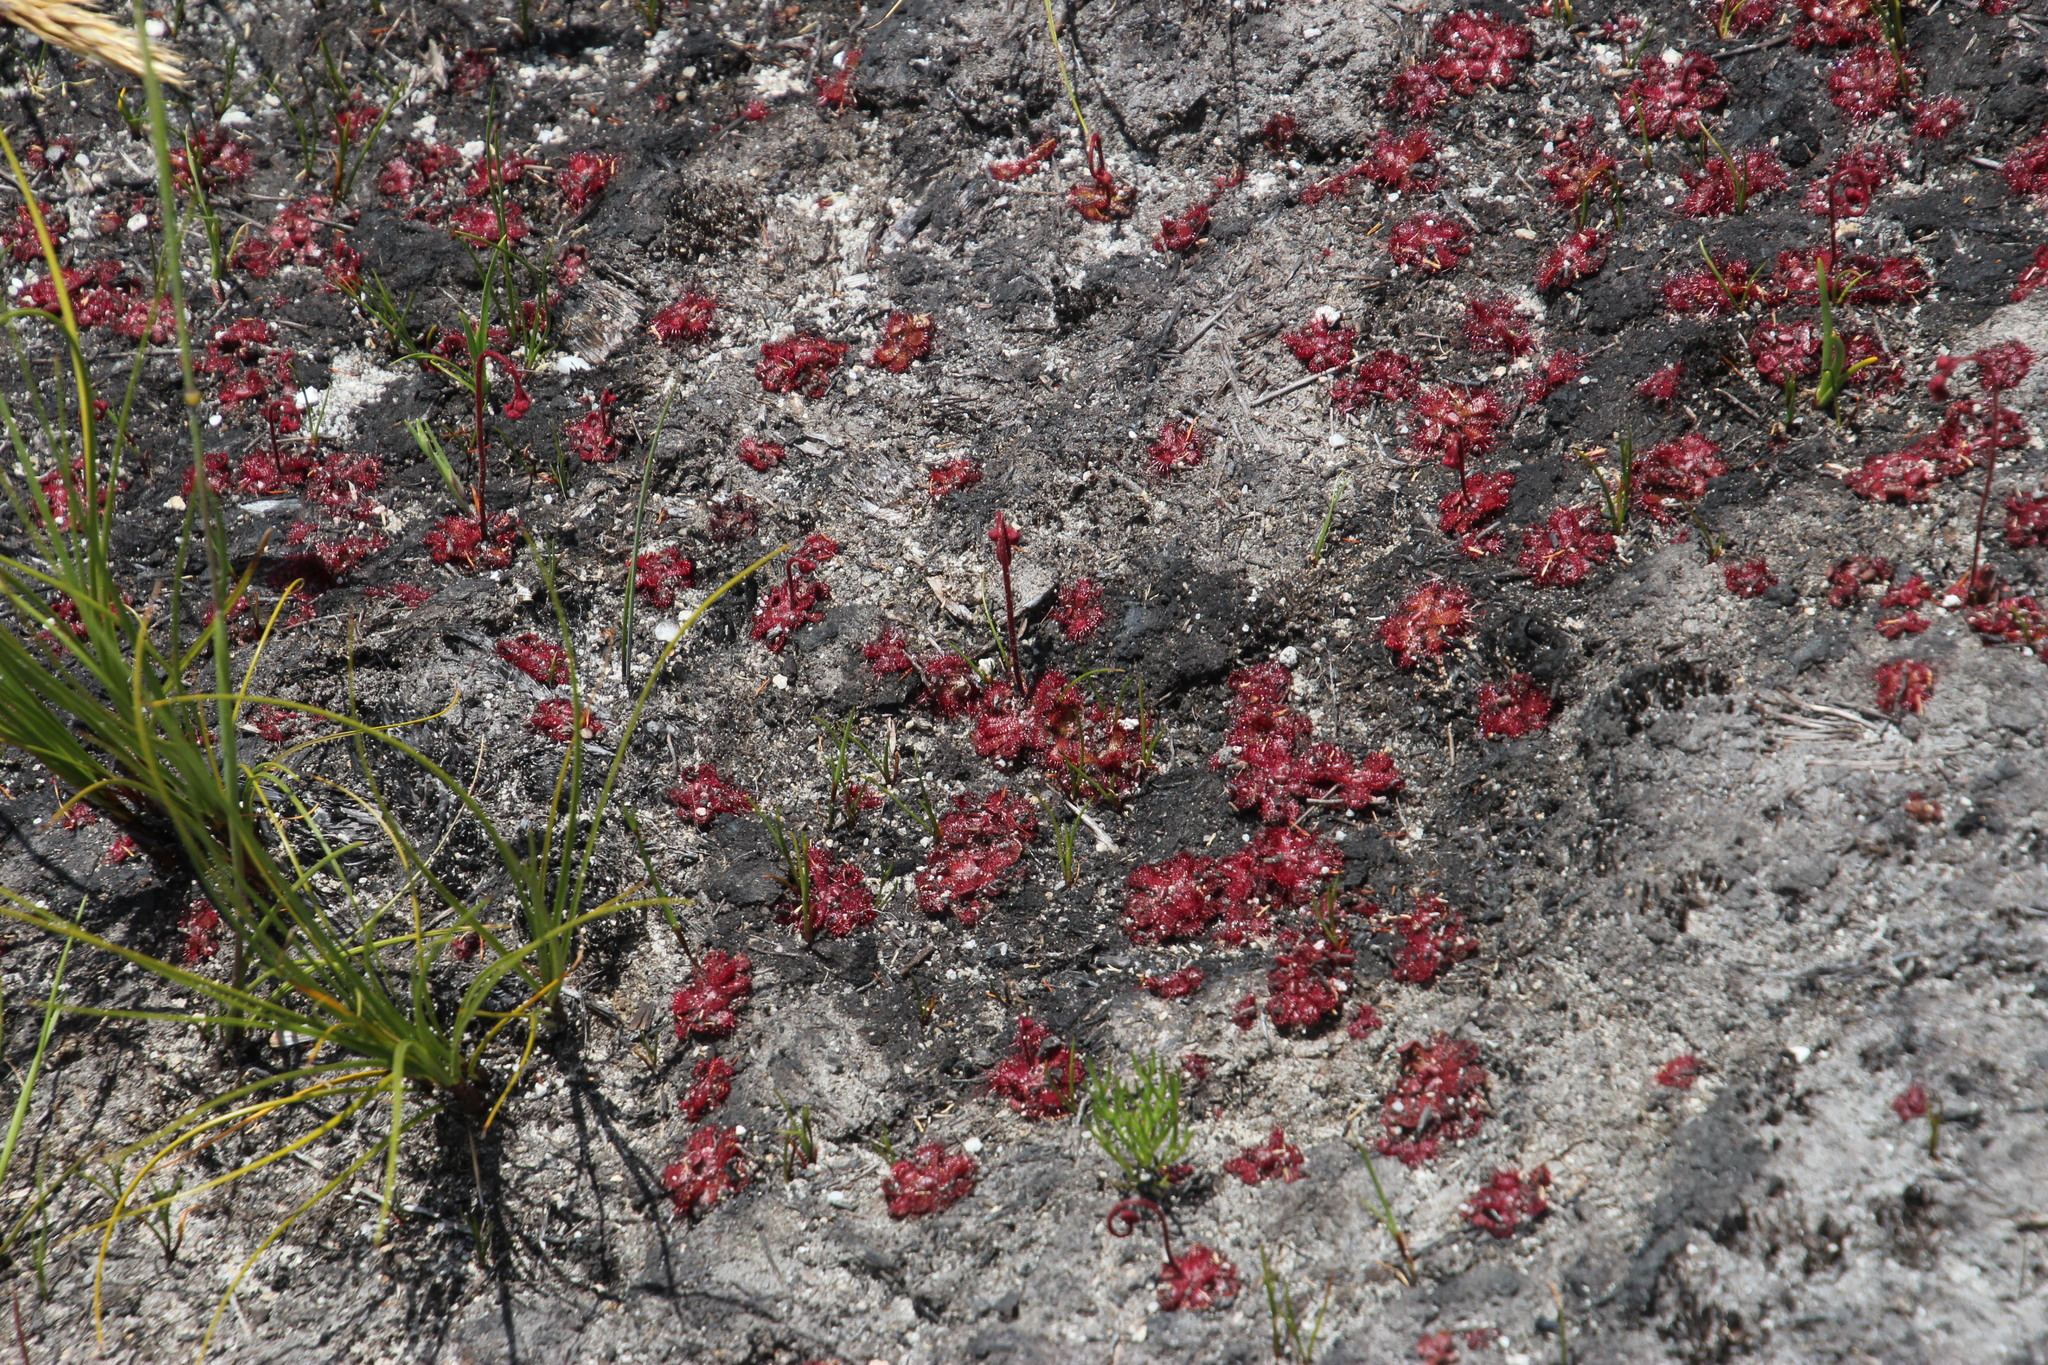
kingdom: Plantae
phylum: Tracheophyta
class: Magnoliopsida
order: Caryophyllales
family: Droseraceae
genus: Drosera
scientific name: Drosera trinervia
